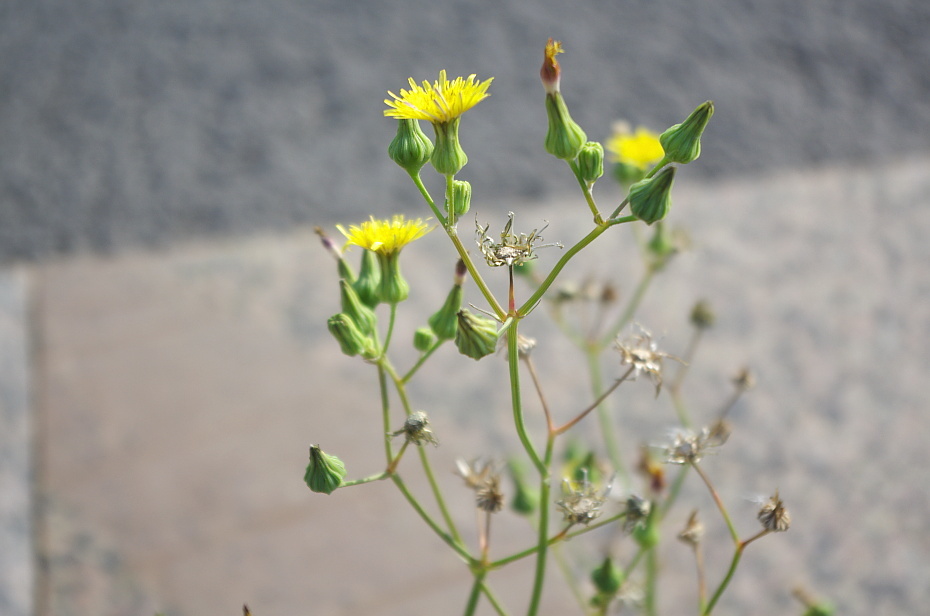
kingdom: Plantae
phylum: Tracheophyta
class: Magnoliopsida
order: Asterales
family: Asteraceae
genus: Sonchus
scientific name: Sonchus oleraceus
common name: Common sowthistle
